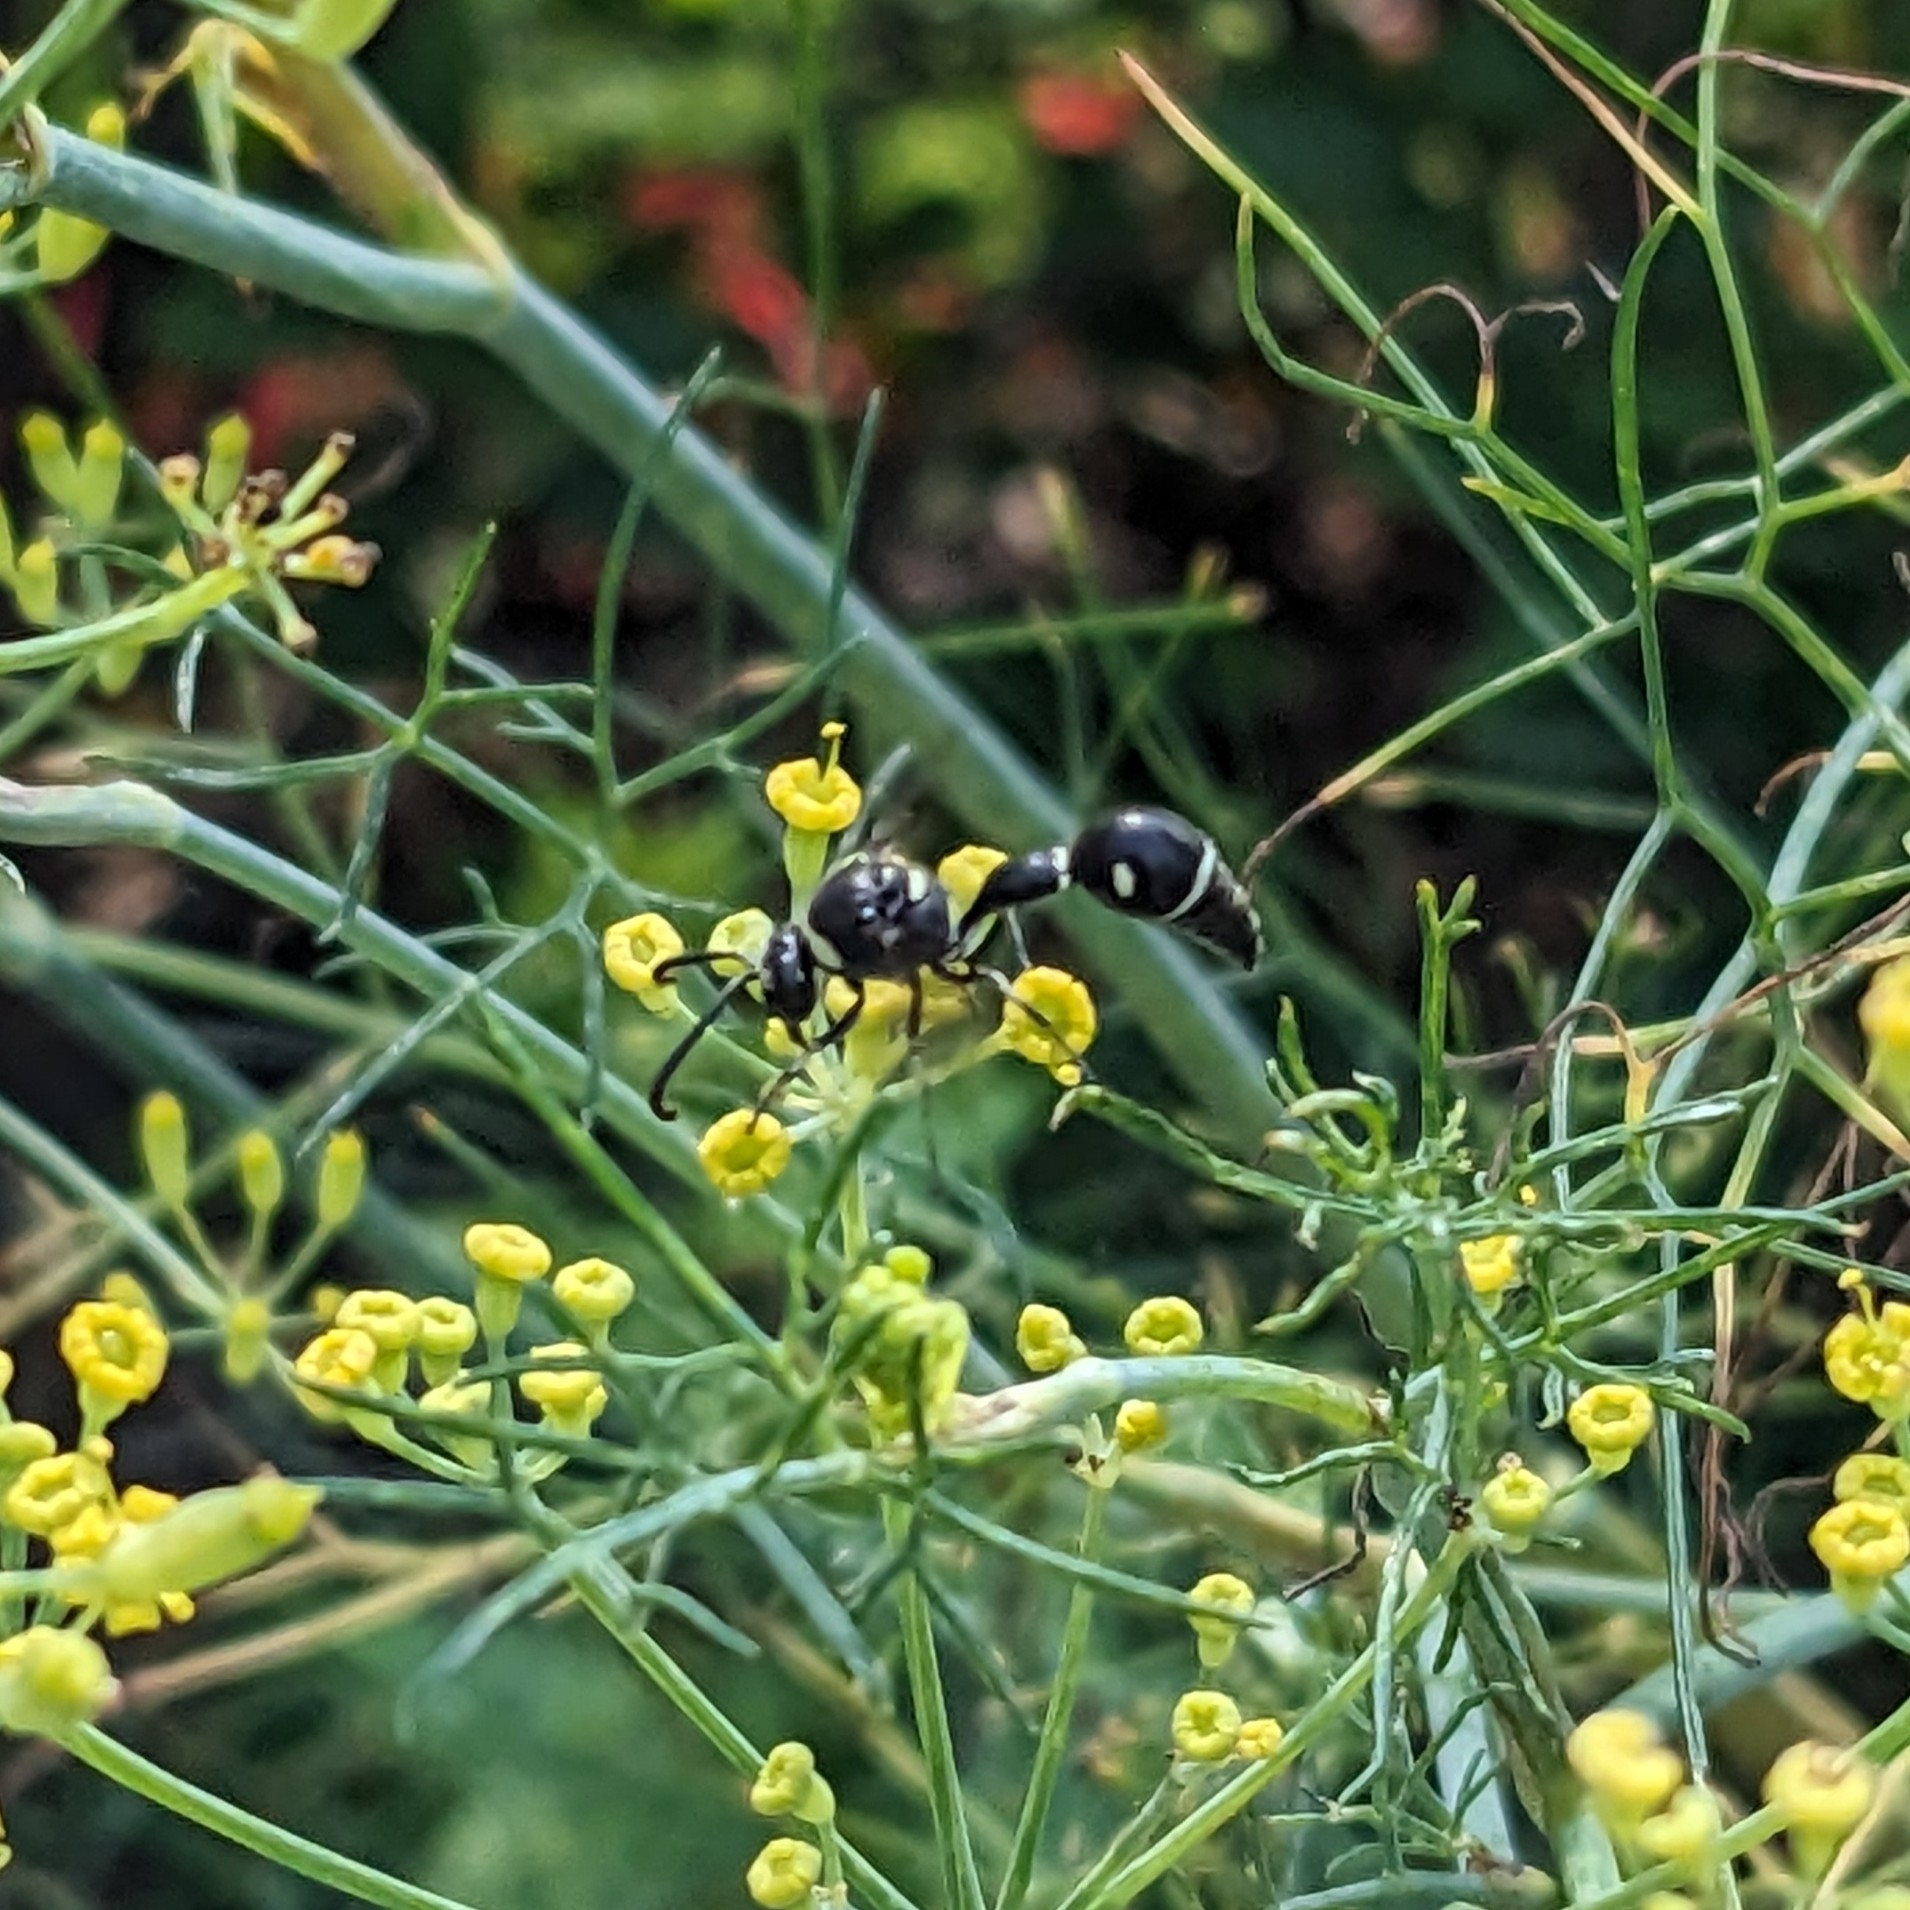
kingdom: Animalia
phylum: Arthropoda
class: Insecta
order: Hymenoptera
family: Vespidae
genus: Eumenes
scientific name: Eumenes fraternus
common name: Fraternal potter wasp
